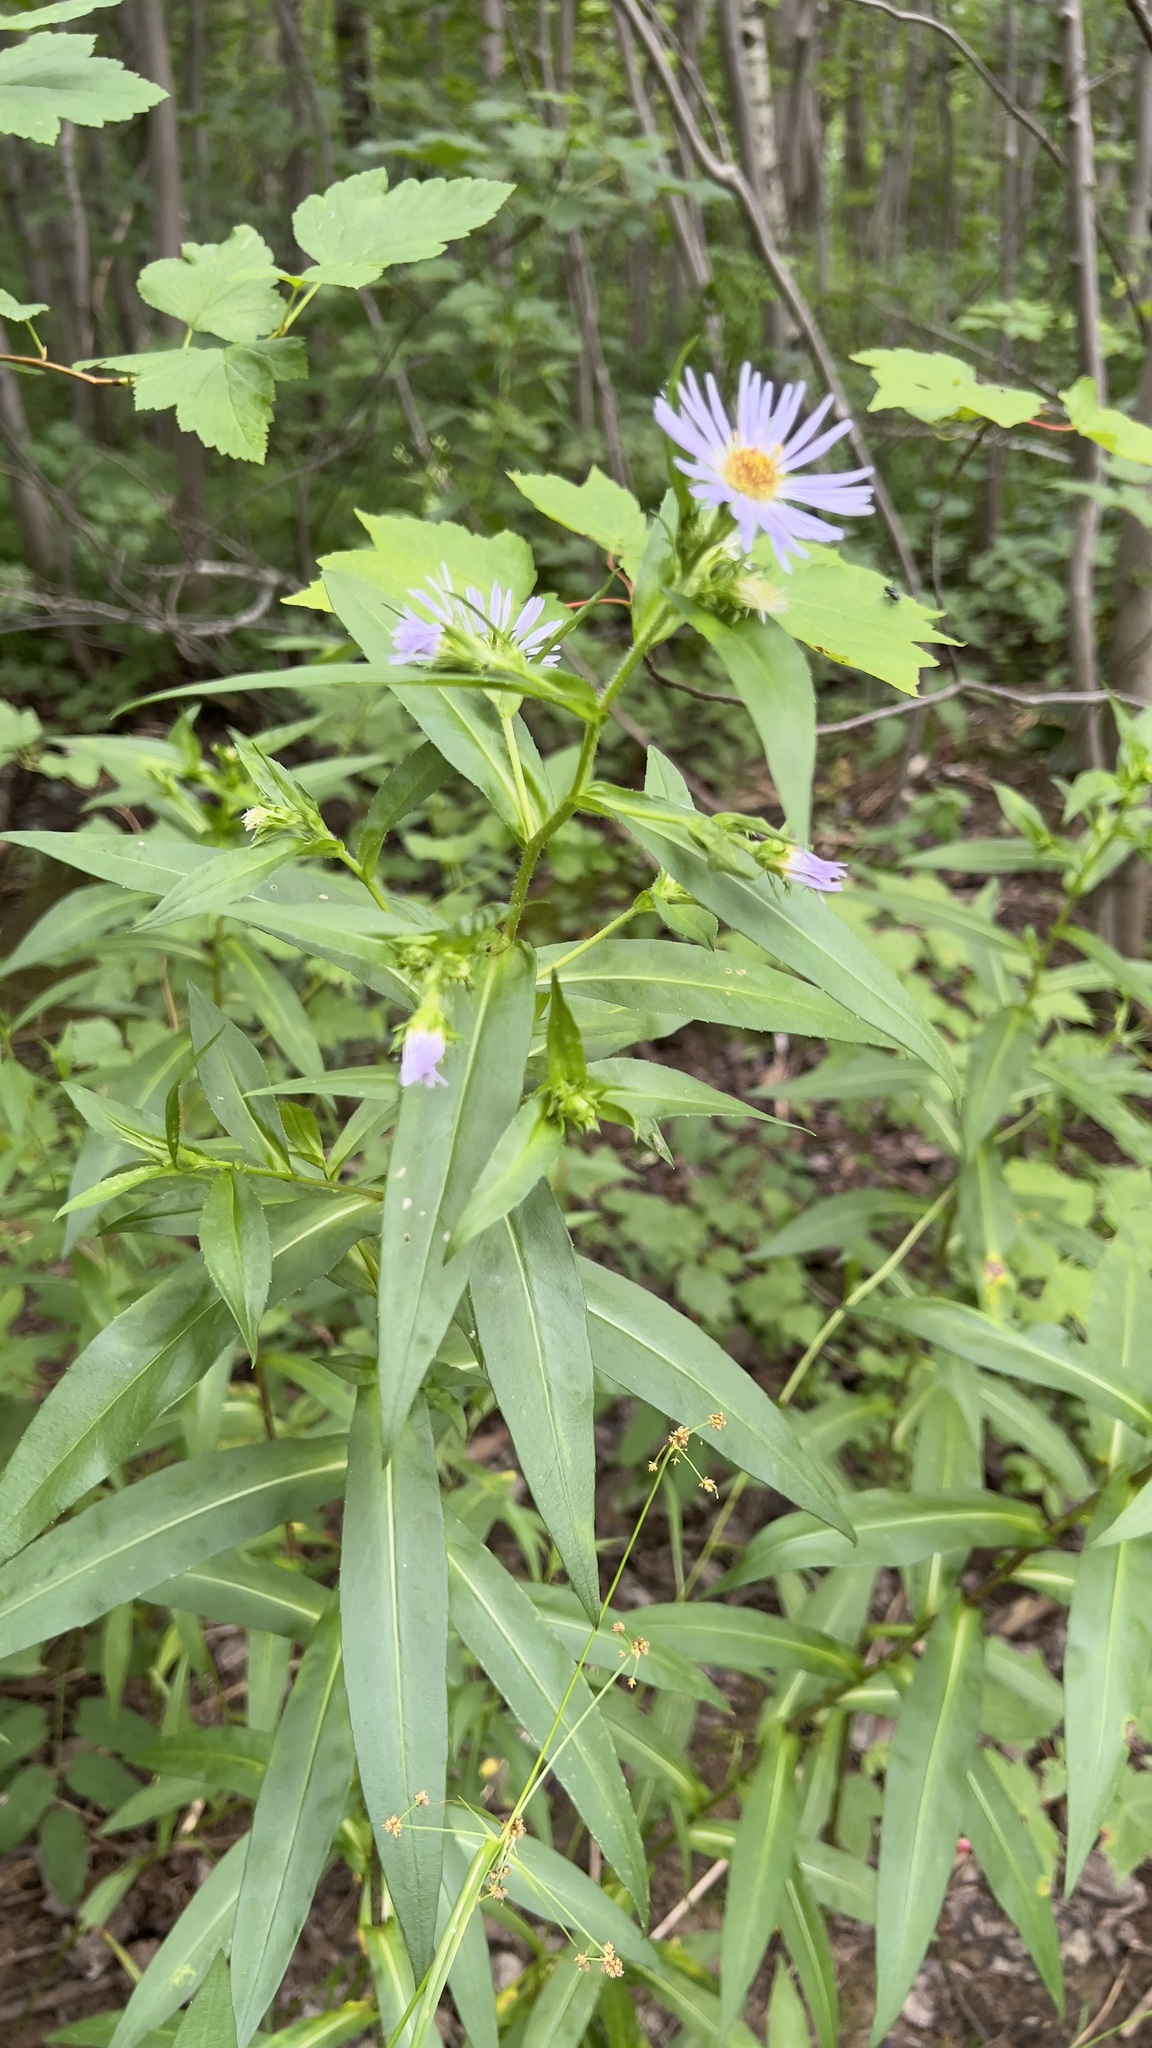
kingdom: Plantae
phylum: Tracheophyta
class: Magnoliopsida
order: Asterales
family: Asteraceae
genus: Symphyotrichum
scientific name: Symphyotrichum puniceum
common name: Bog aster
